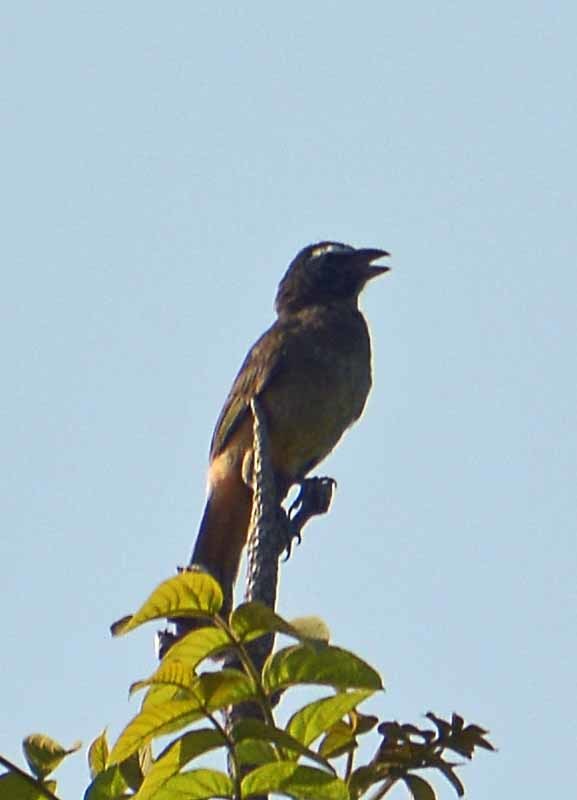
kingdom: Animalia
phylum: Chordata
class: Aves
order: Passeriformes
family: Thraupidae
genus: Saltator
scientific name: Saltator grandis
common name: Cinnamon-bellied saltator
